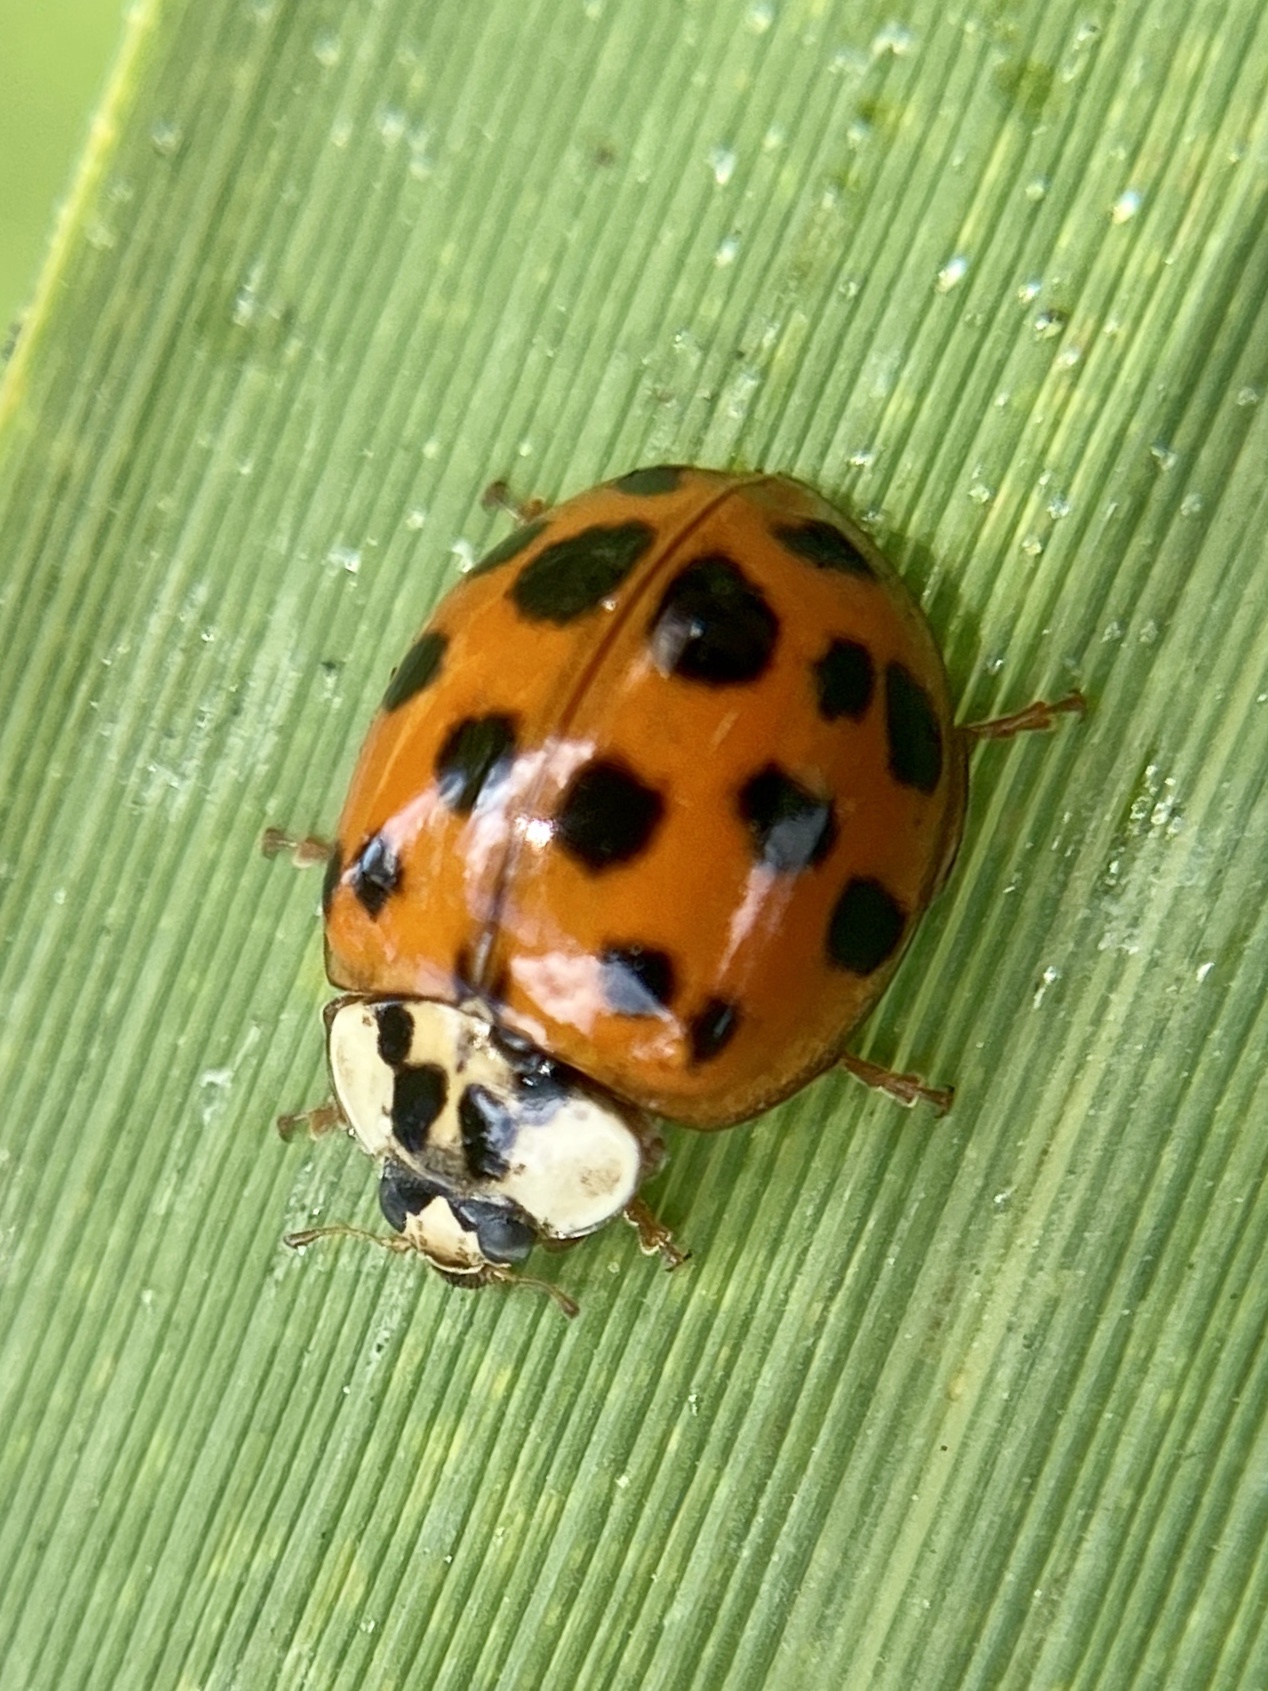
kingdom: Animalia
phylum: Arthropoda
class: Insecta
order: Coleoptera
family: Coccinellidae
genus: Harmonia
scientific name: Harmonia axyridis
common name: Harlequin ladybird
